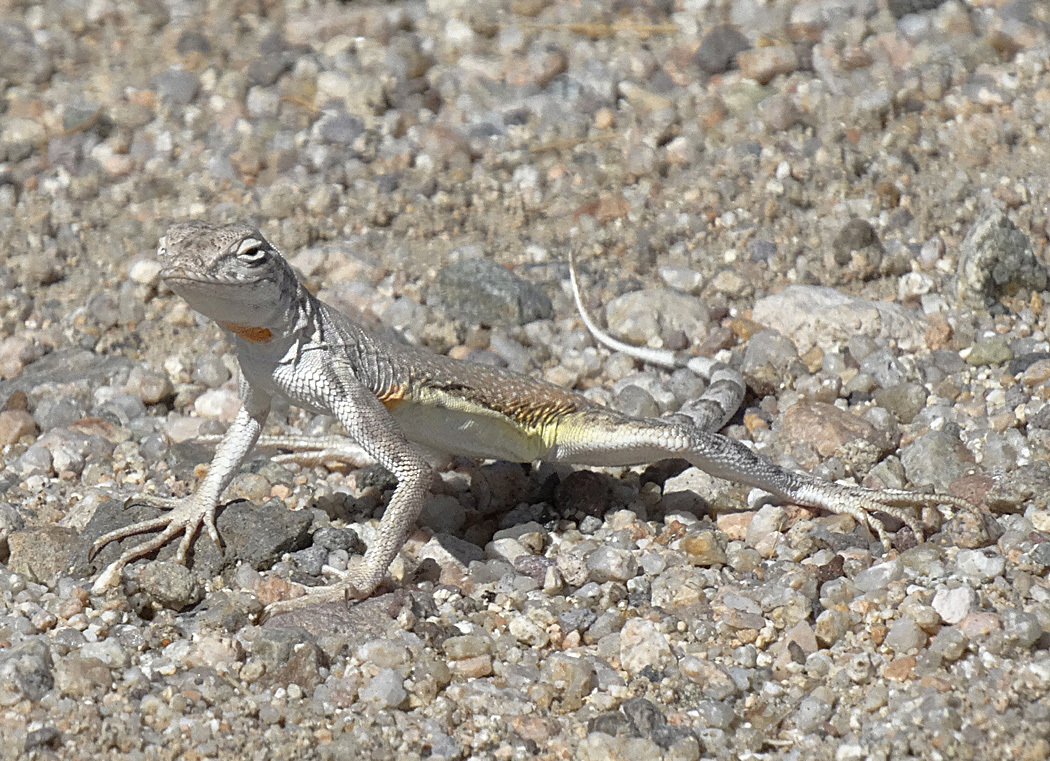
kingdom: Animalia
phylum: Chordata
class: Squamata
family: Phrynosomatidae
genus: Callisaurus
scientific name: Callisaurus draconoides
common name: Zebra-tailed lizard
